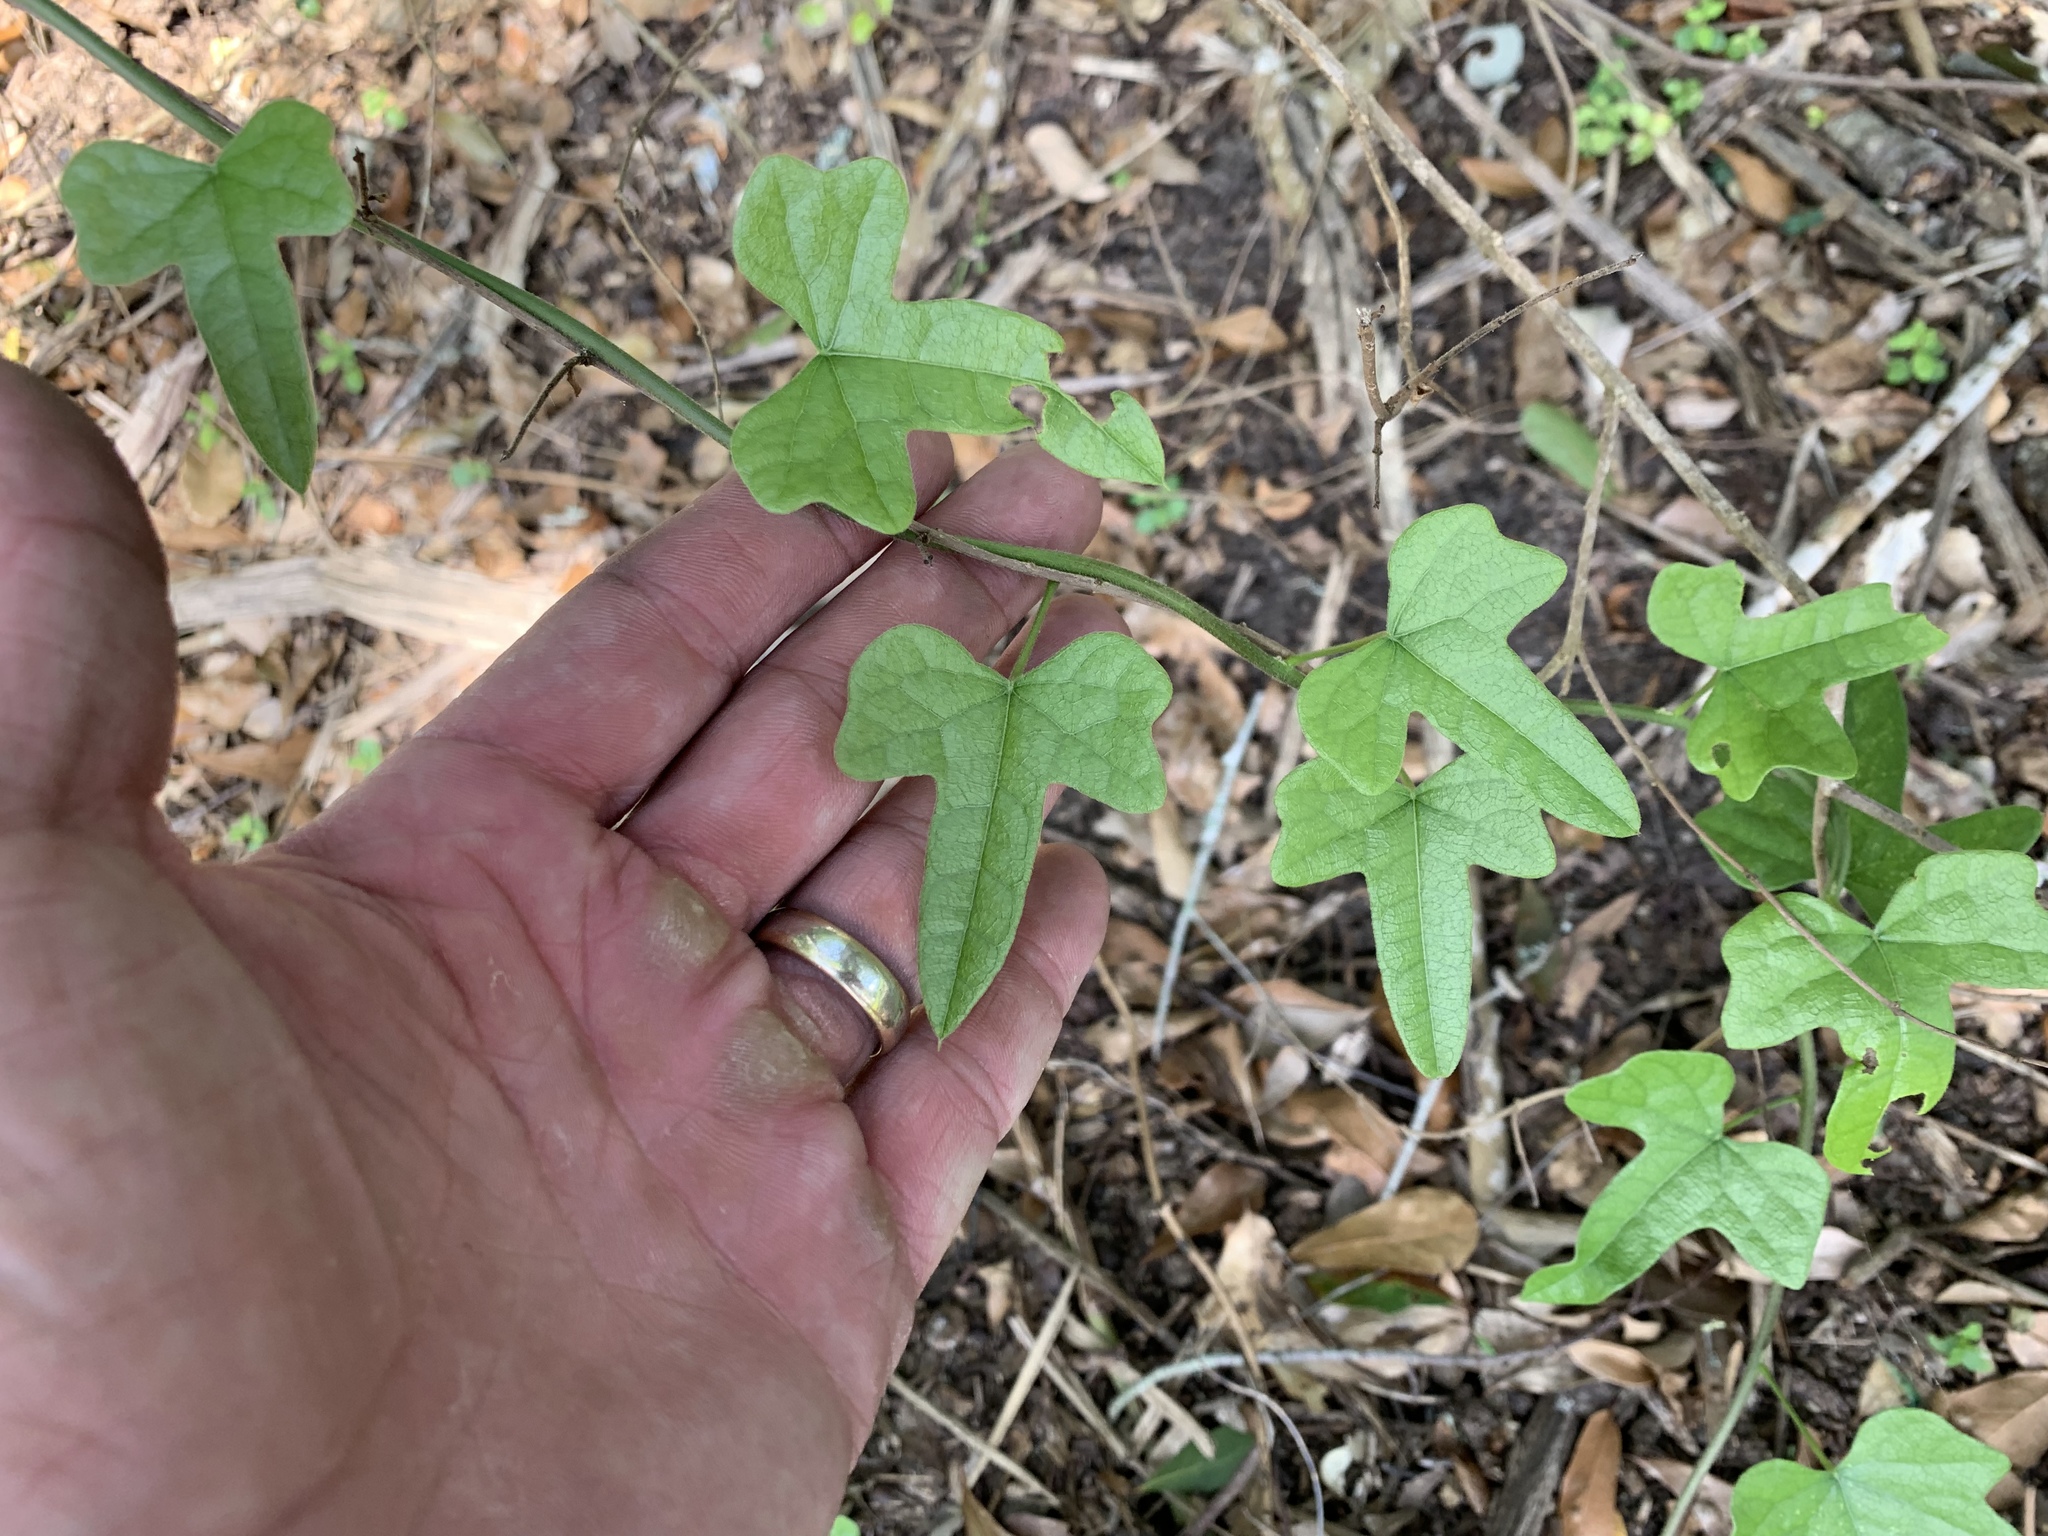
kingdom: Plantae
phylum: Tracheophyta
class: Magnoliopsida
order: Ranunculales
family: Menispermaceae
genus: Cocculus
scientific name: Cocculus carolinus
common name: Carolina moonseed
